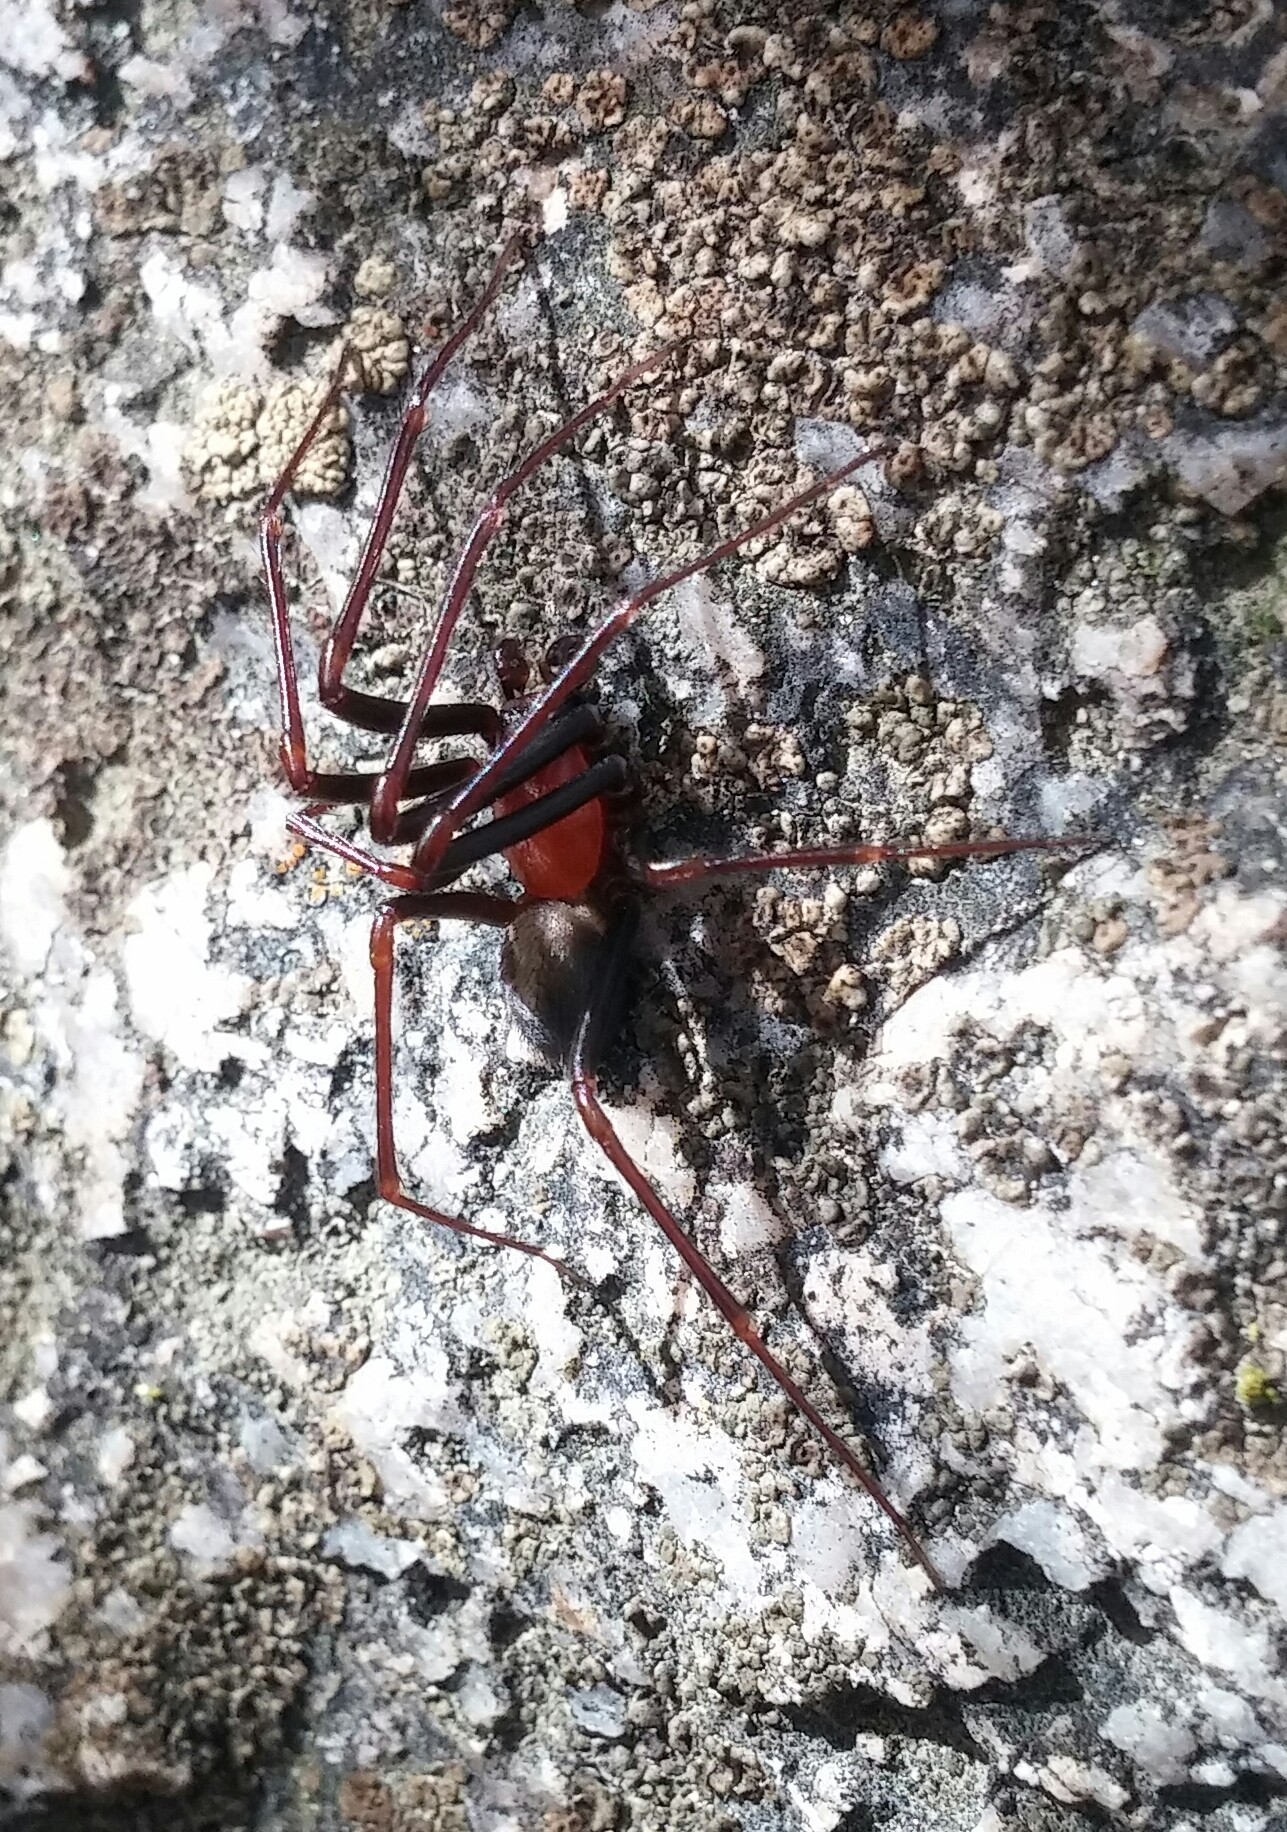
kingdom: Animalia
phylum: Arthropoda
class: Arachnida
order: Araneae
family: Plectreuridae
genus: Kibramoa
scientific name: Kibramoa suprenans
